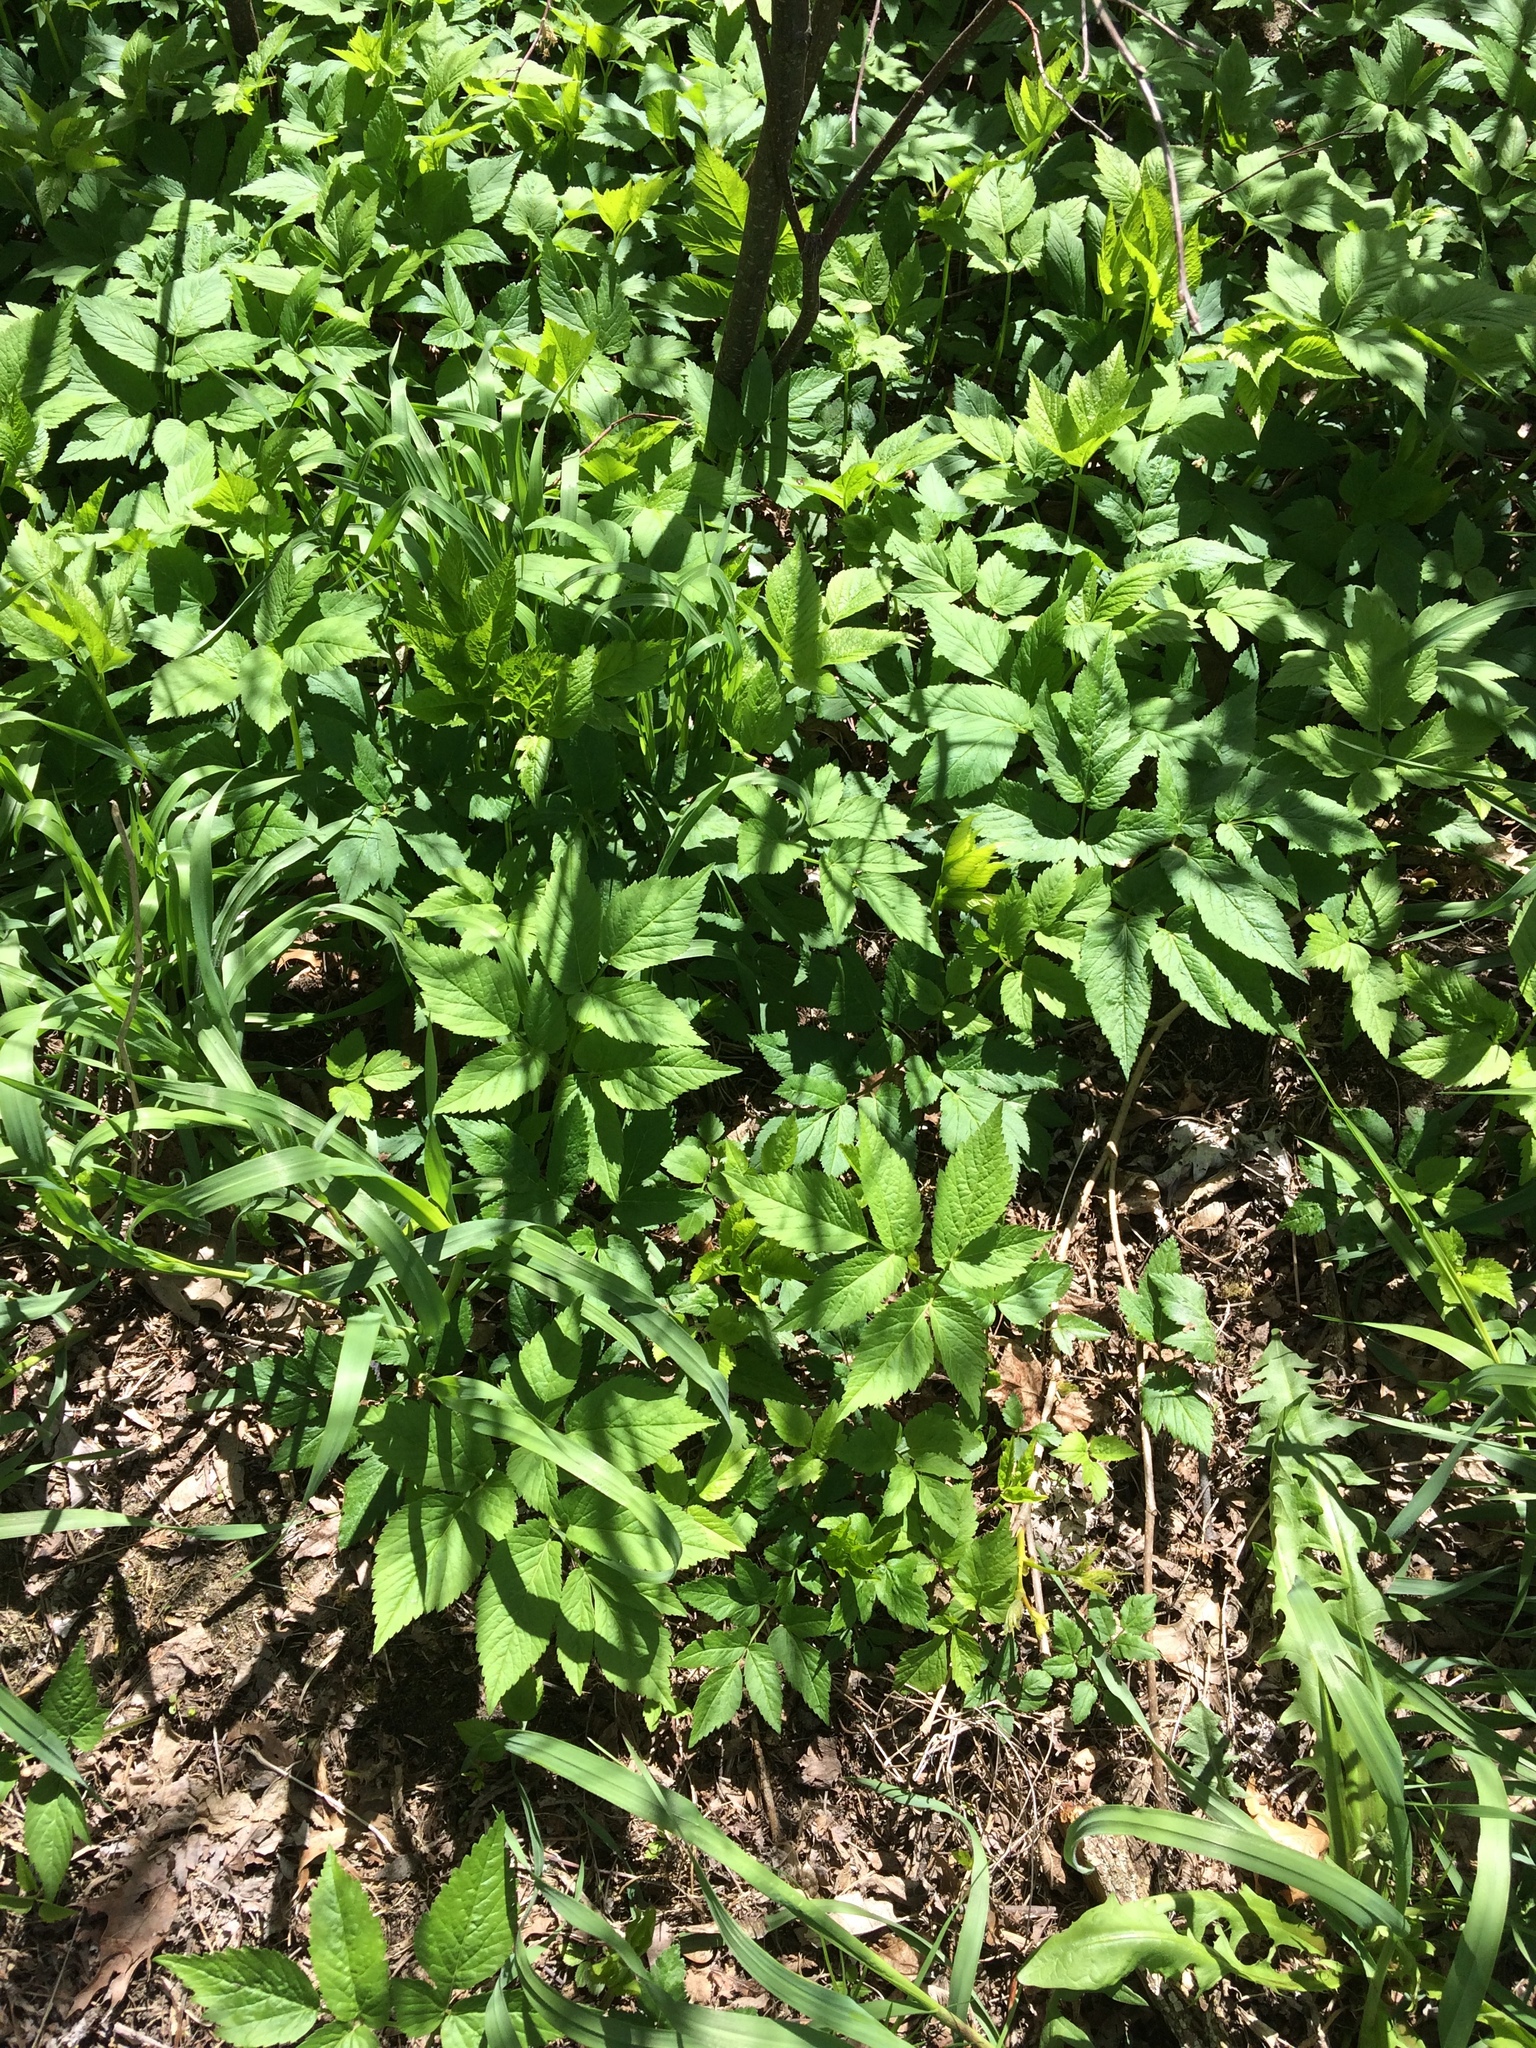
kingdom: Plantae
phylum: Tracheophyta
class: Magnoliopsida
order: Apiales
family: Apiaceae
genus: Aegopodium
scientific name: Aegopodium podagraria
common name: Ground-elder
